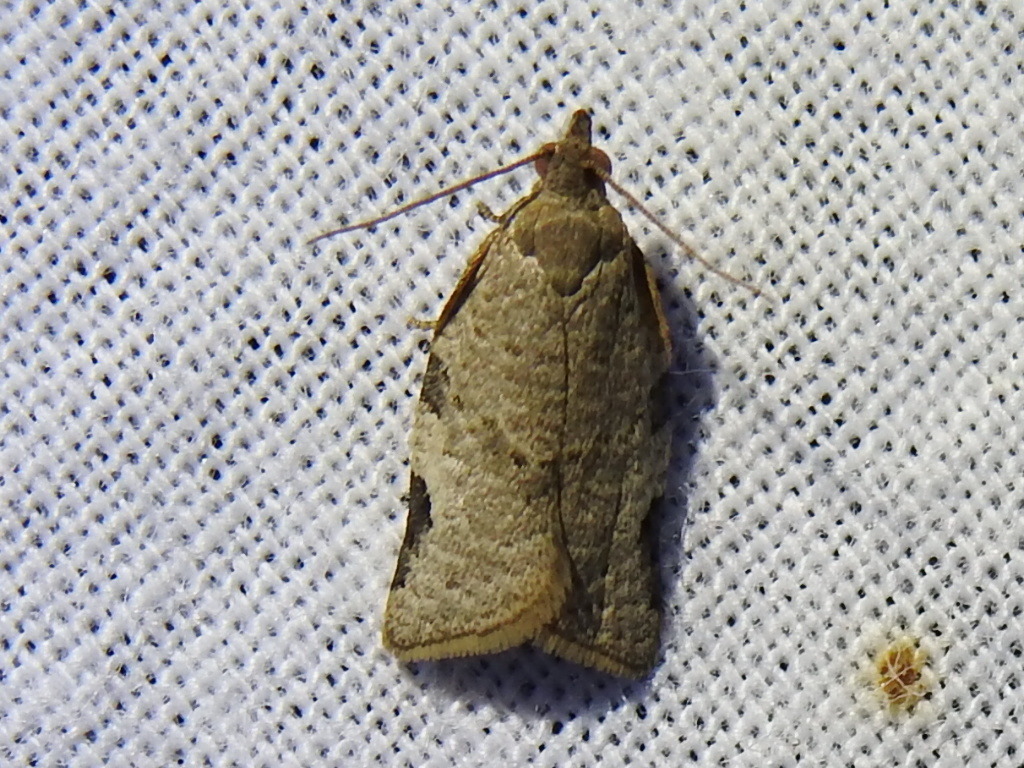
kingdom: Animalia
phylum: Arthropoda
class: Insecta
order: Lepidoptera
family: Tortricidae
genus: Clepsis
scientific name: Clepsis virescana
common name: Greenish apple moth
